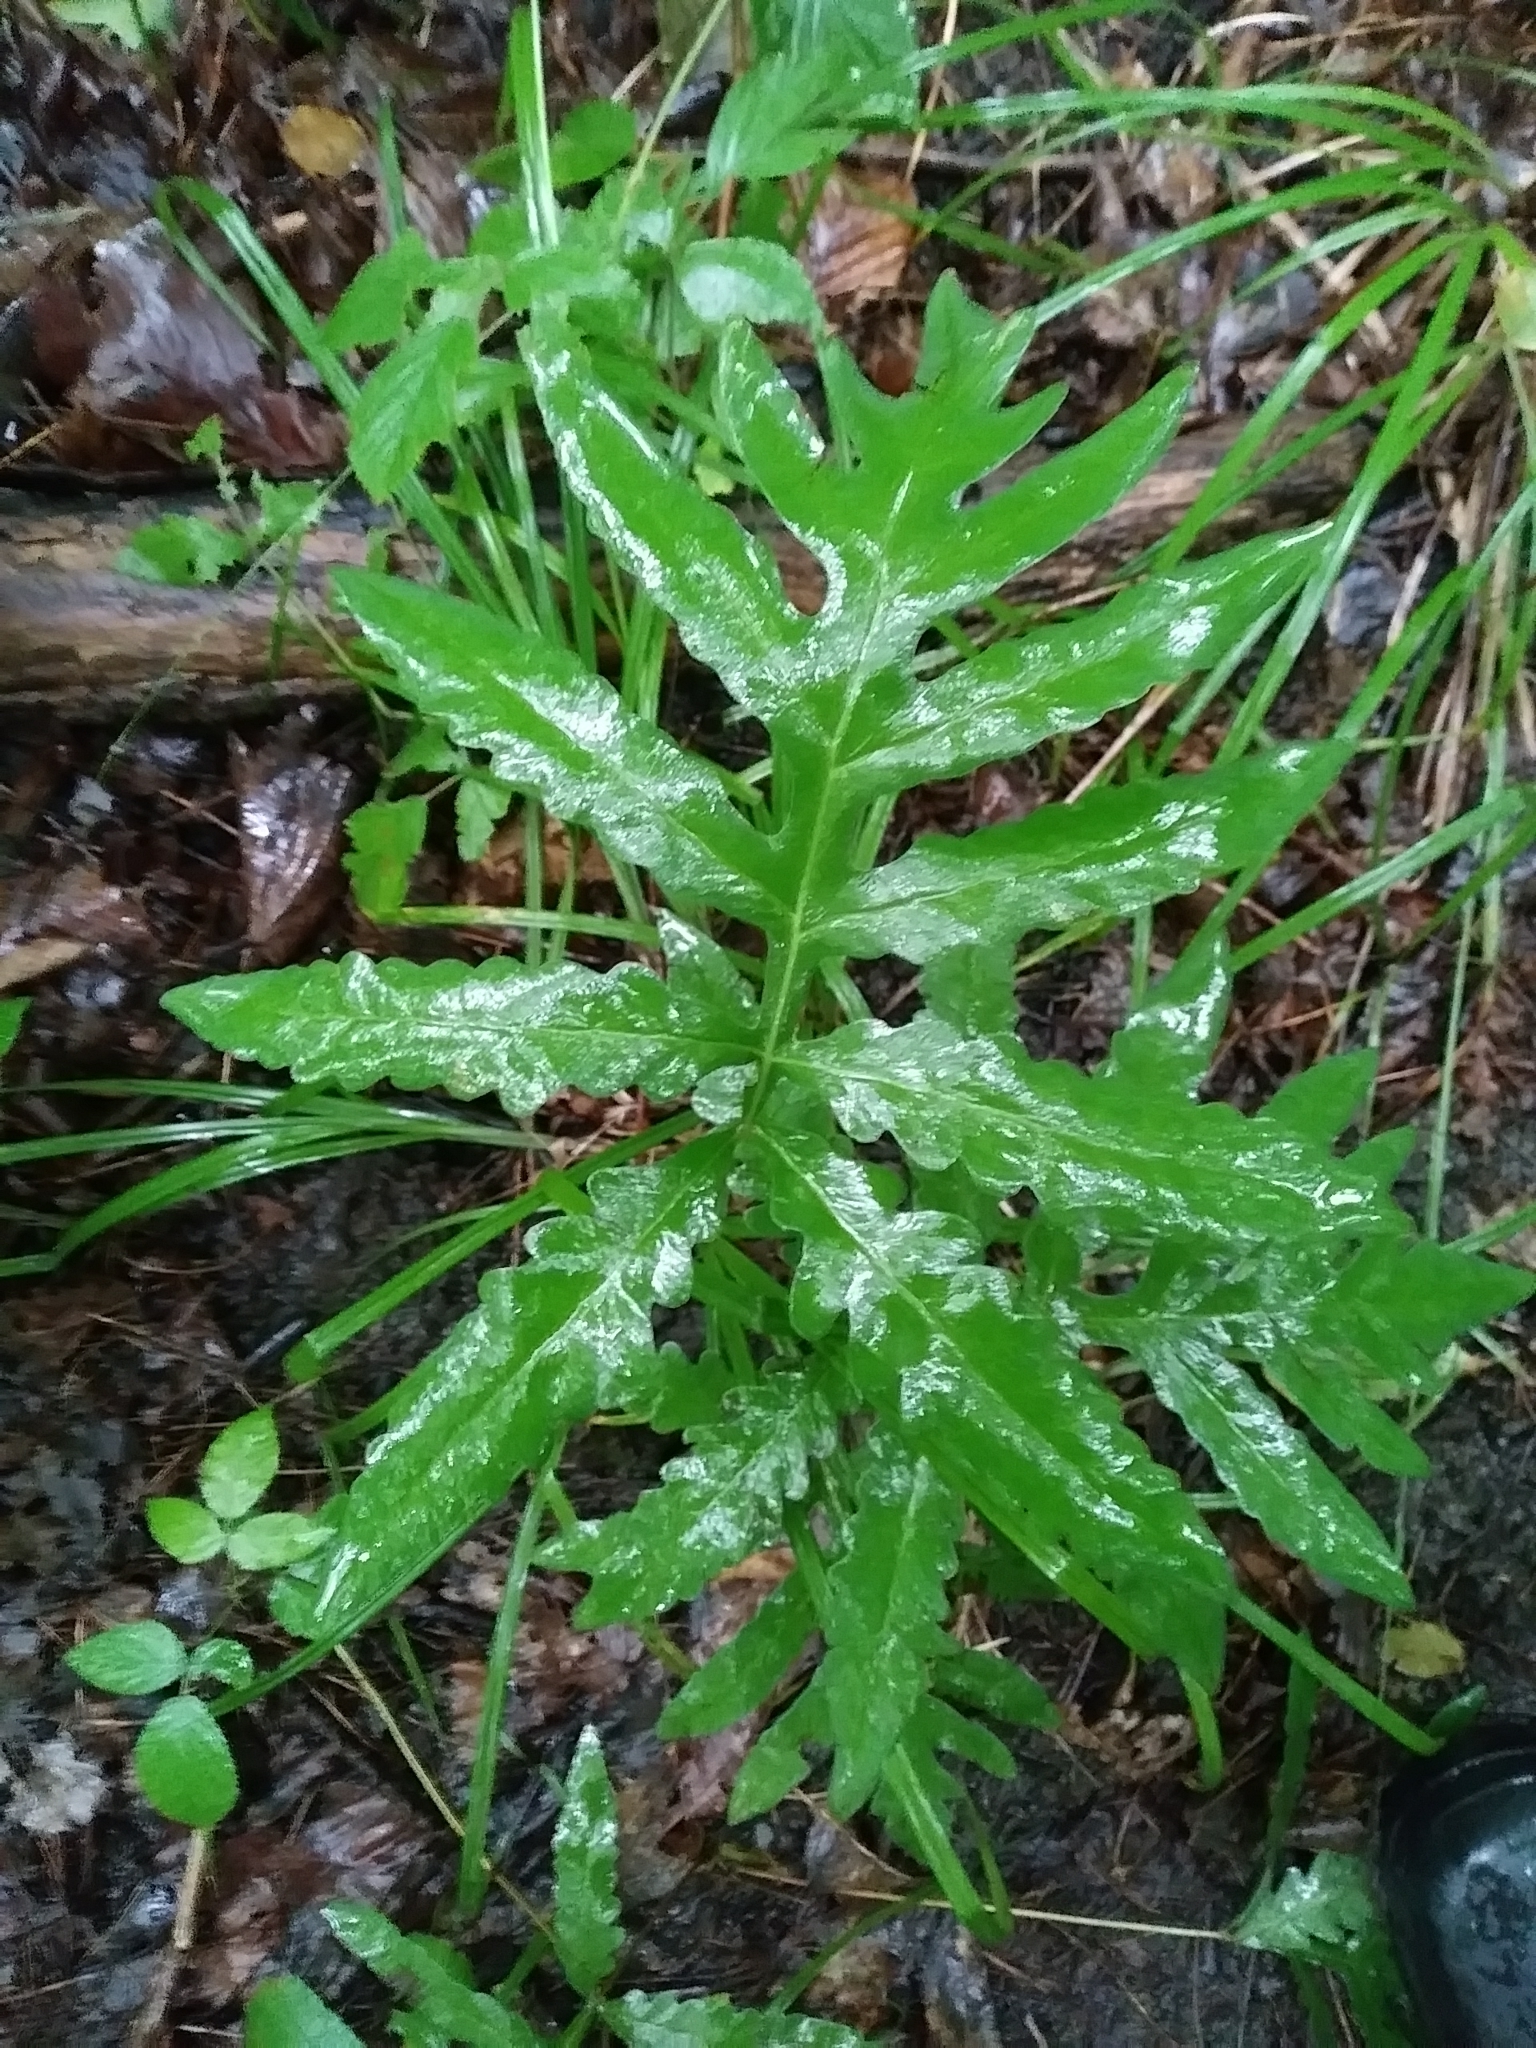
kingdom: Plantae
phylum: Tracheophyta
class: Polypodiopsida
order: Polypodiales
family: Onocleaceae
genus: Onoclea
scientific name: Onoclea sensibilis
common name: Sensitive fern
